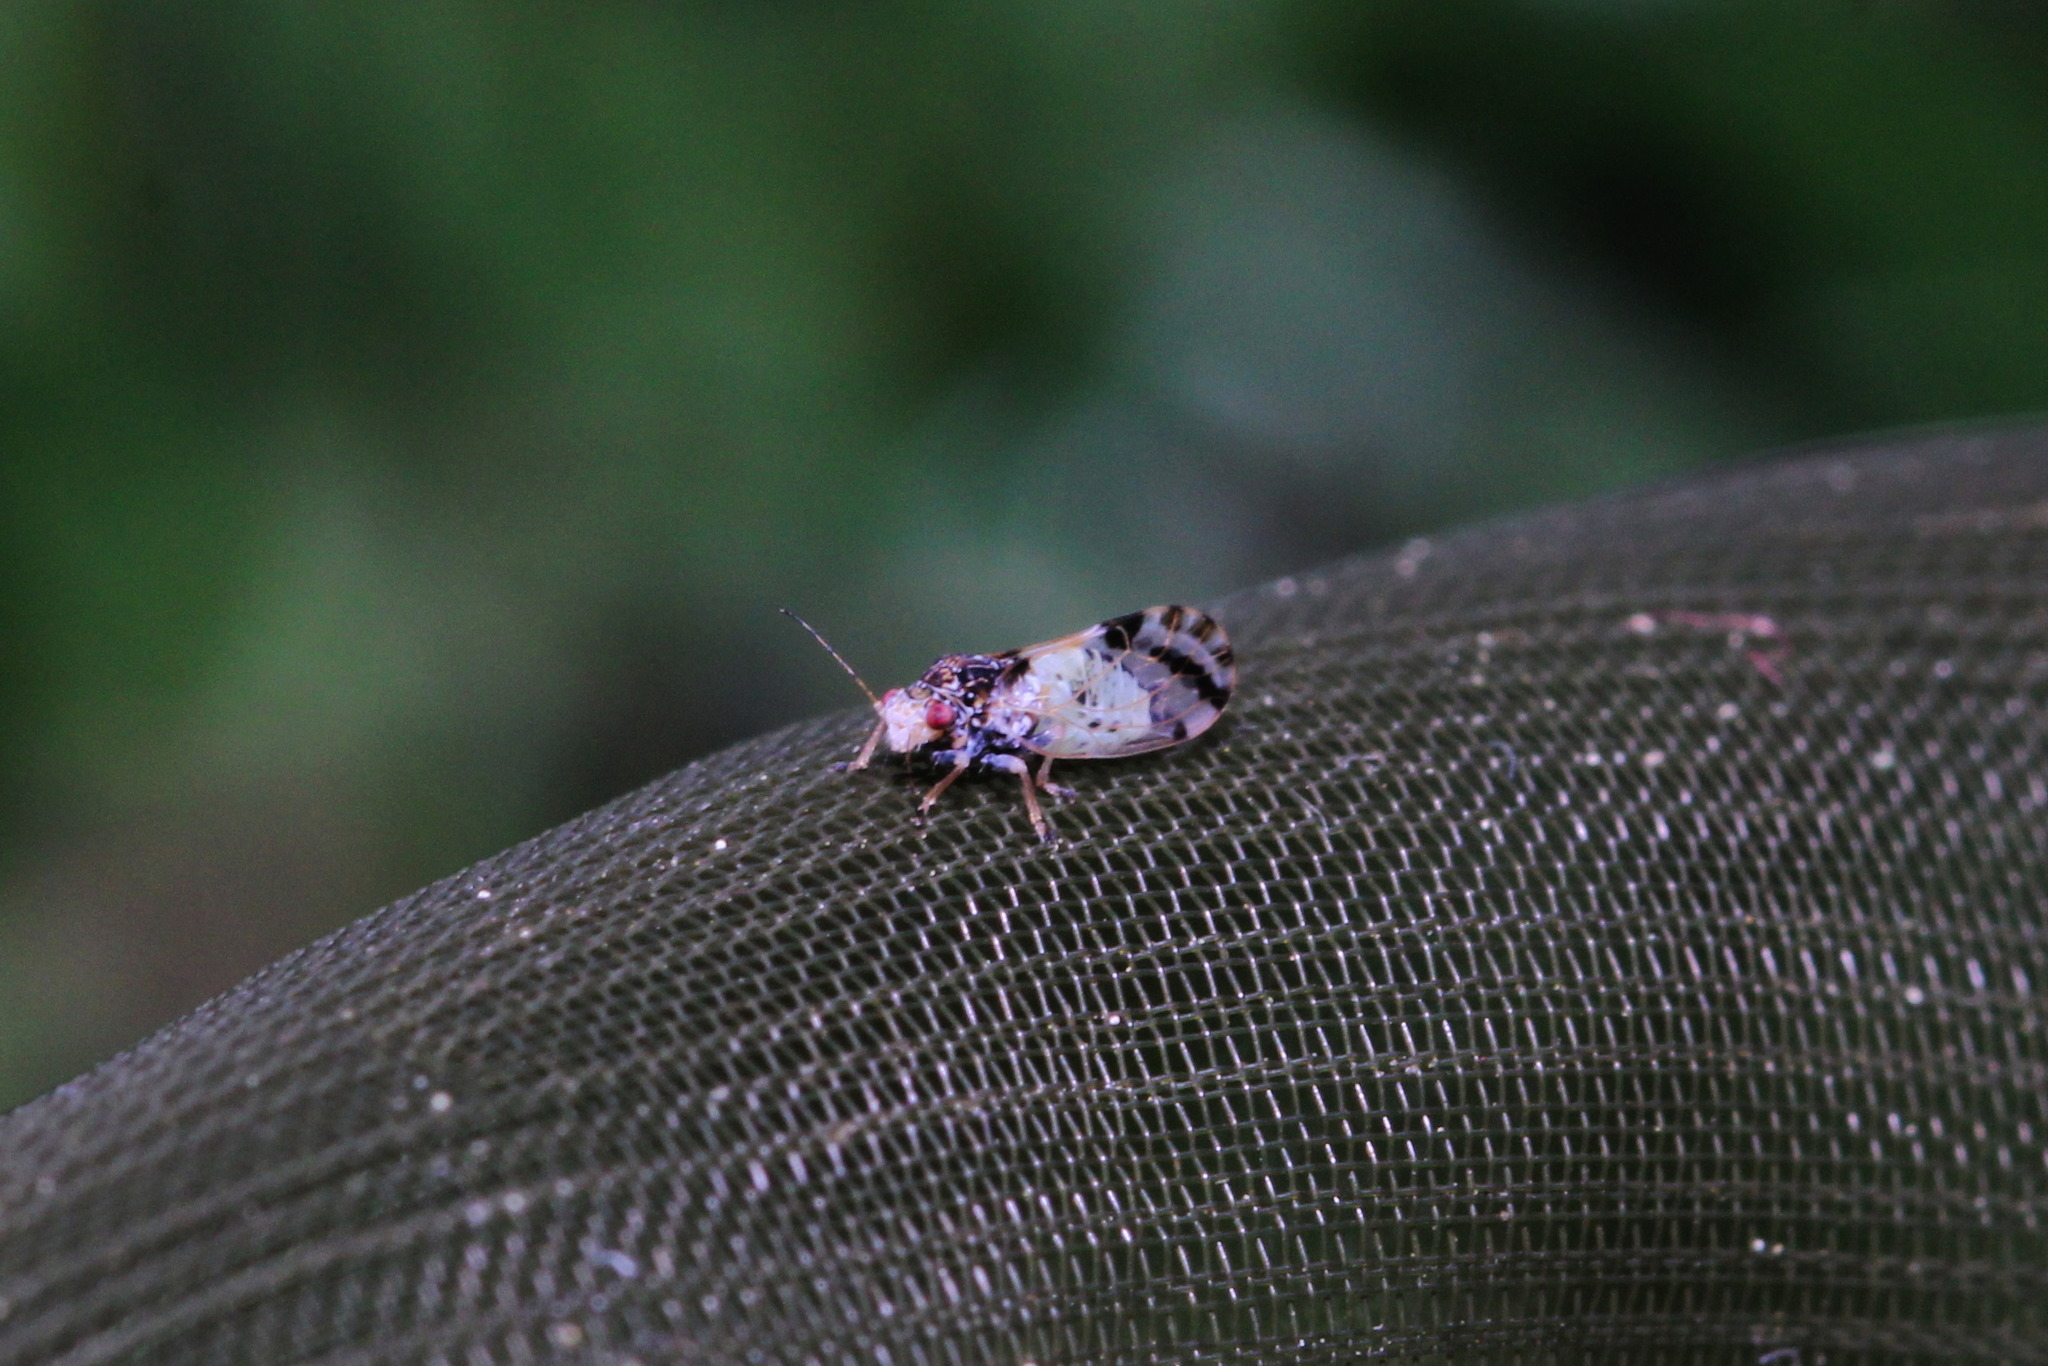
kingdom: Animalia
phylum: Arthropoda
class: Insecta
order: Hemiptera
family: Psyllidae
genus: Cacopsylla
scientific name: Cacopsylla pulchella
